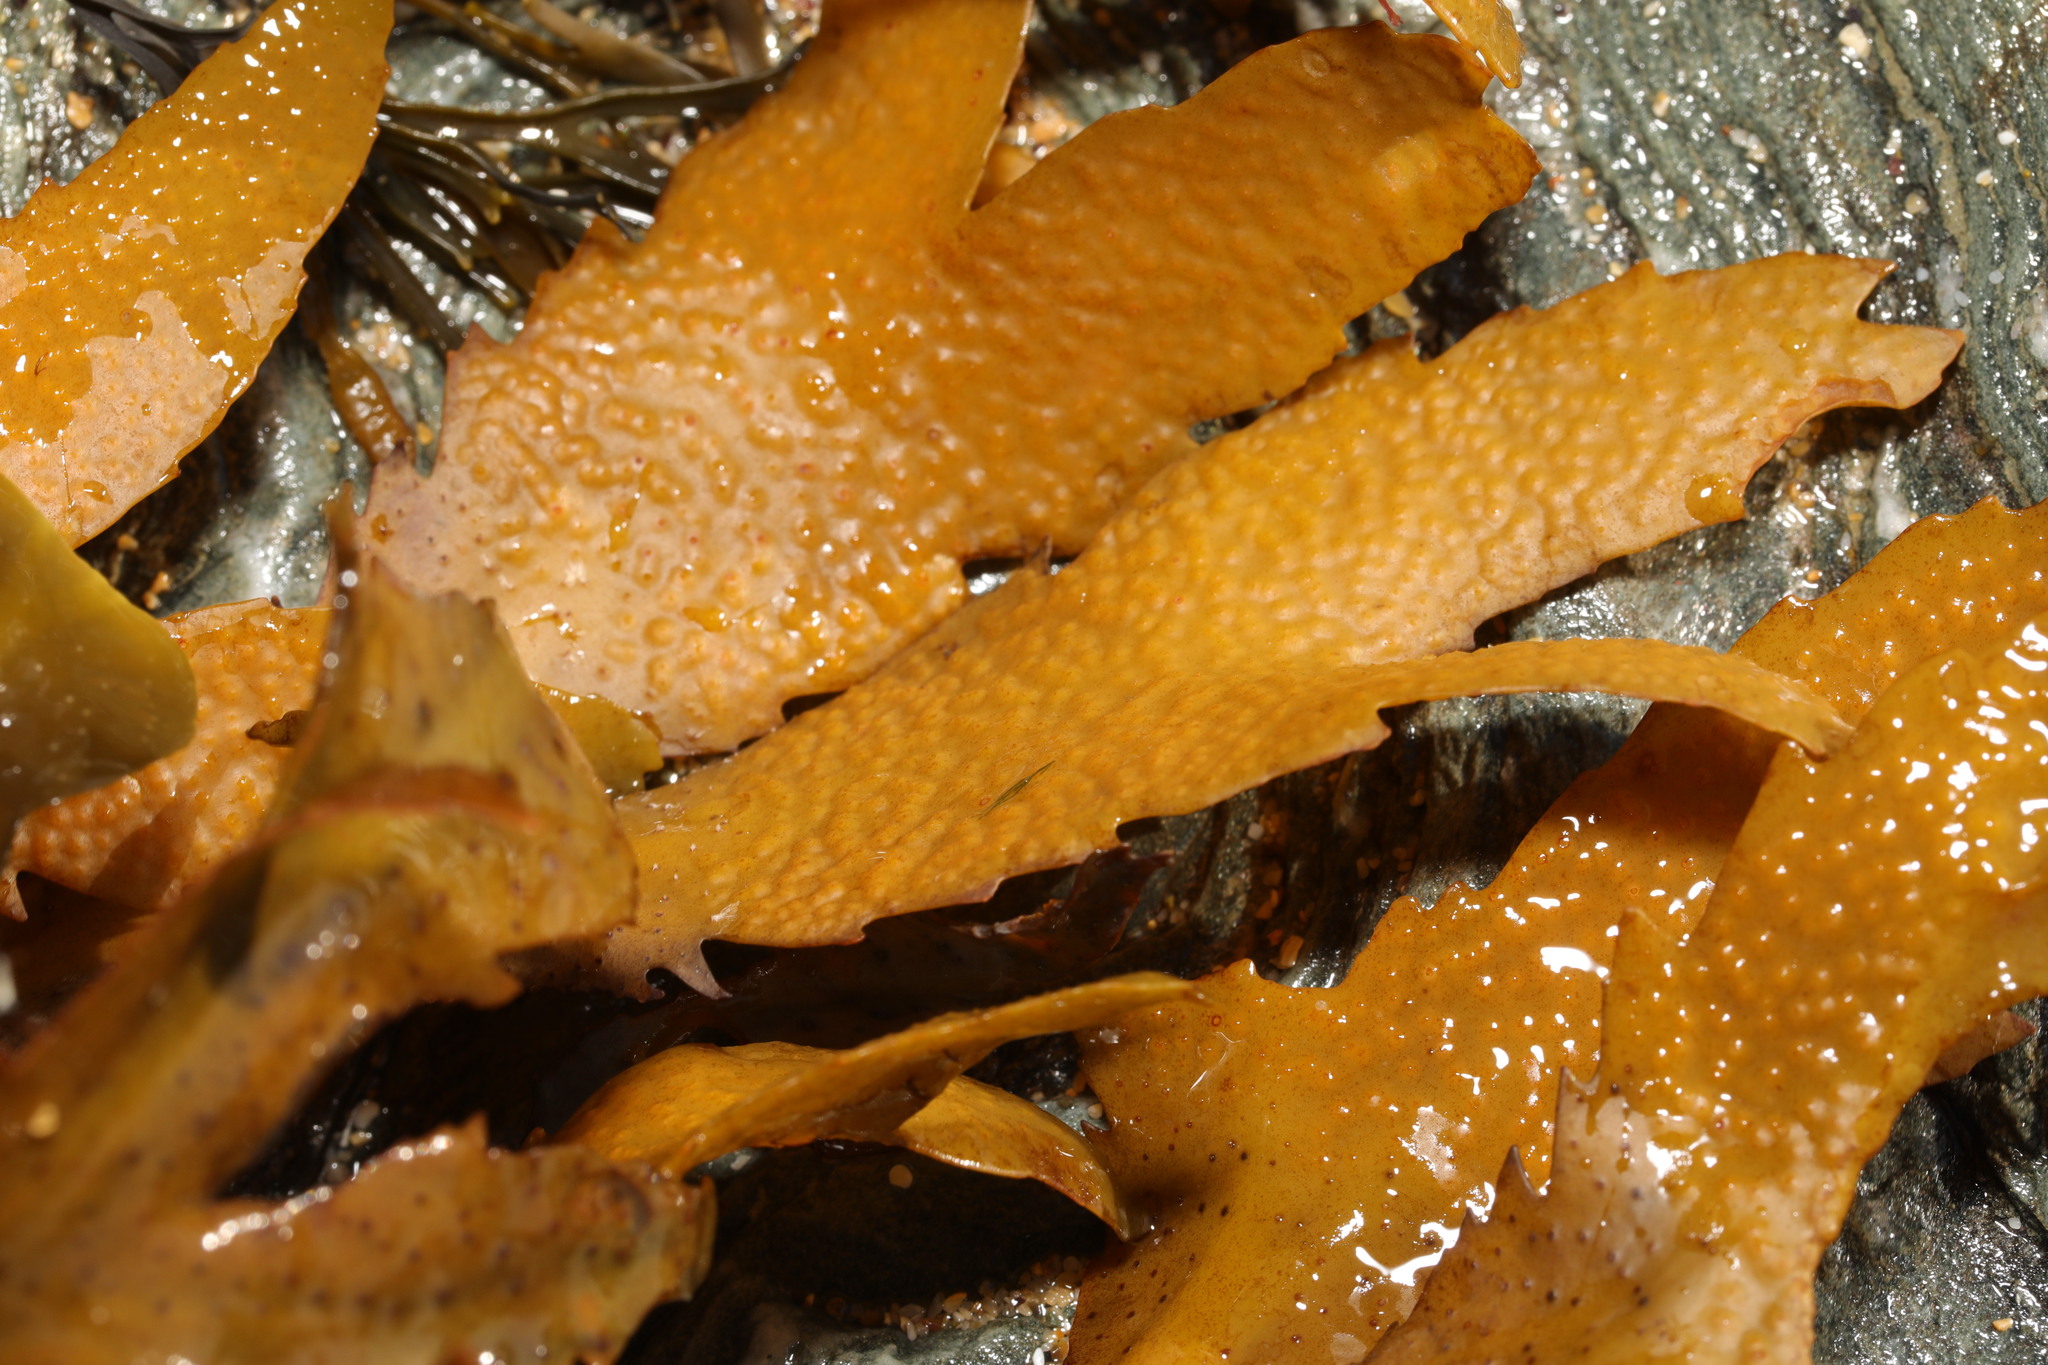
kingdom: Chromista
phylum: Ochrophyta
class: Phaeophyceae
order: Fucales
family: Fucaceae
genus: Fucus
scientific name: Fucus serratus
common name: Toothed wrack
